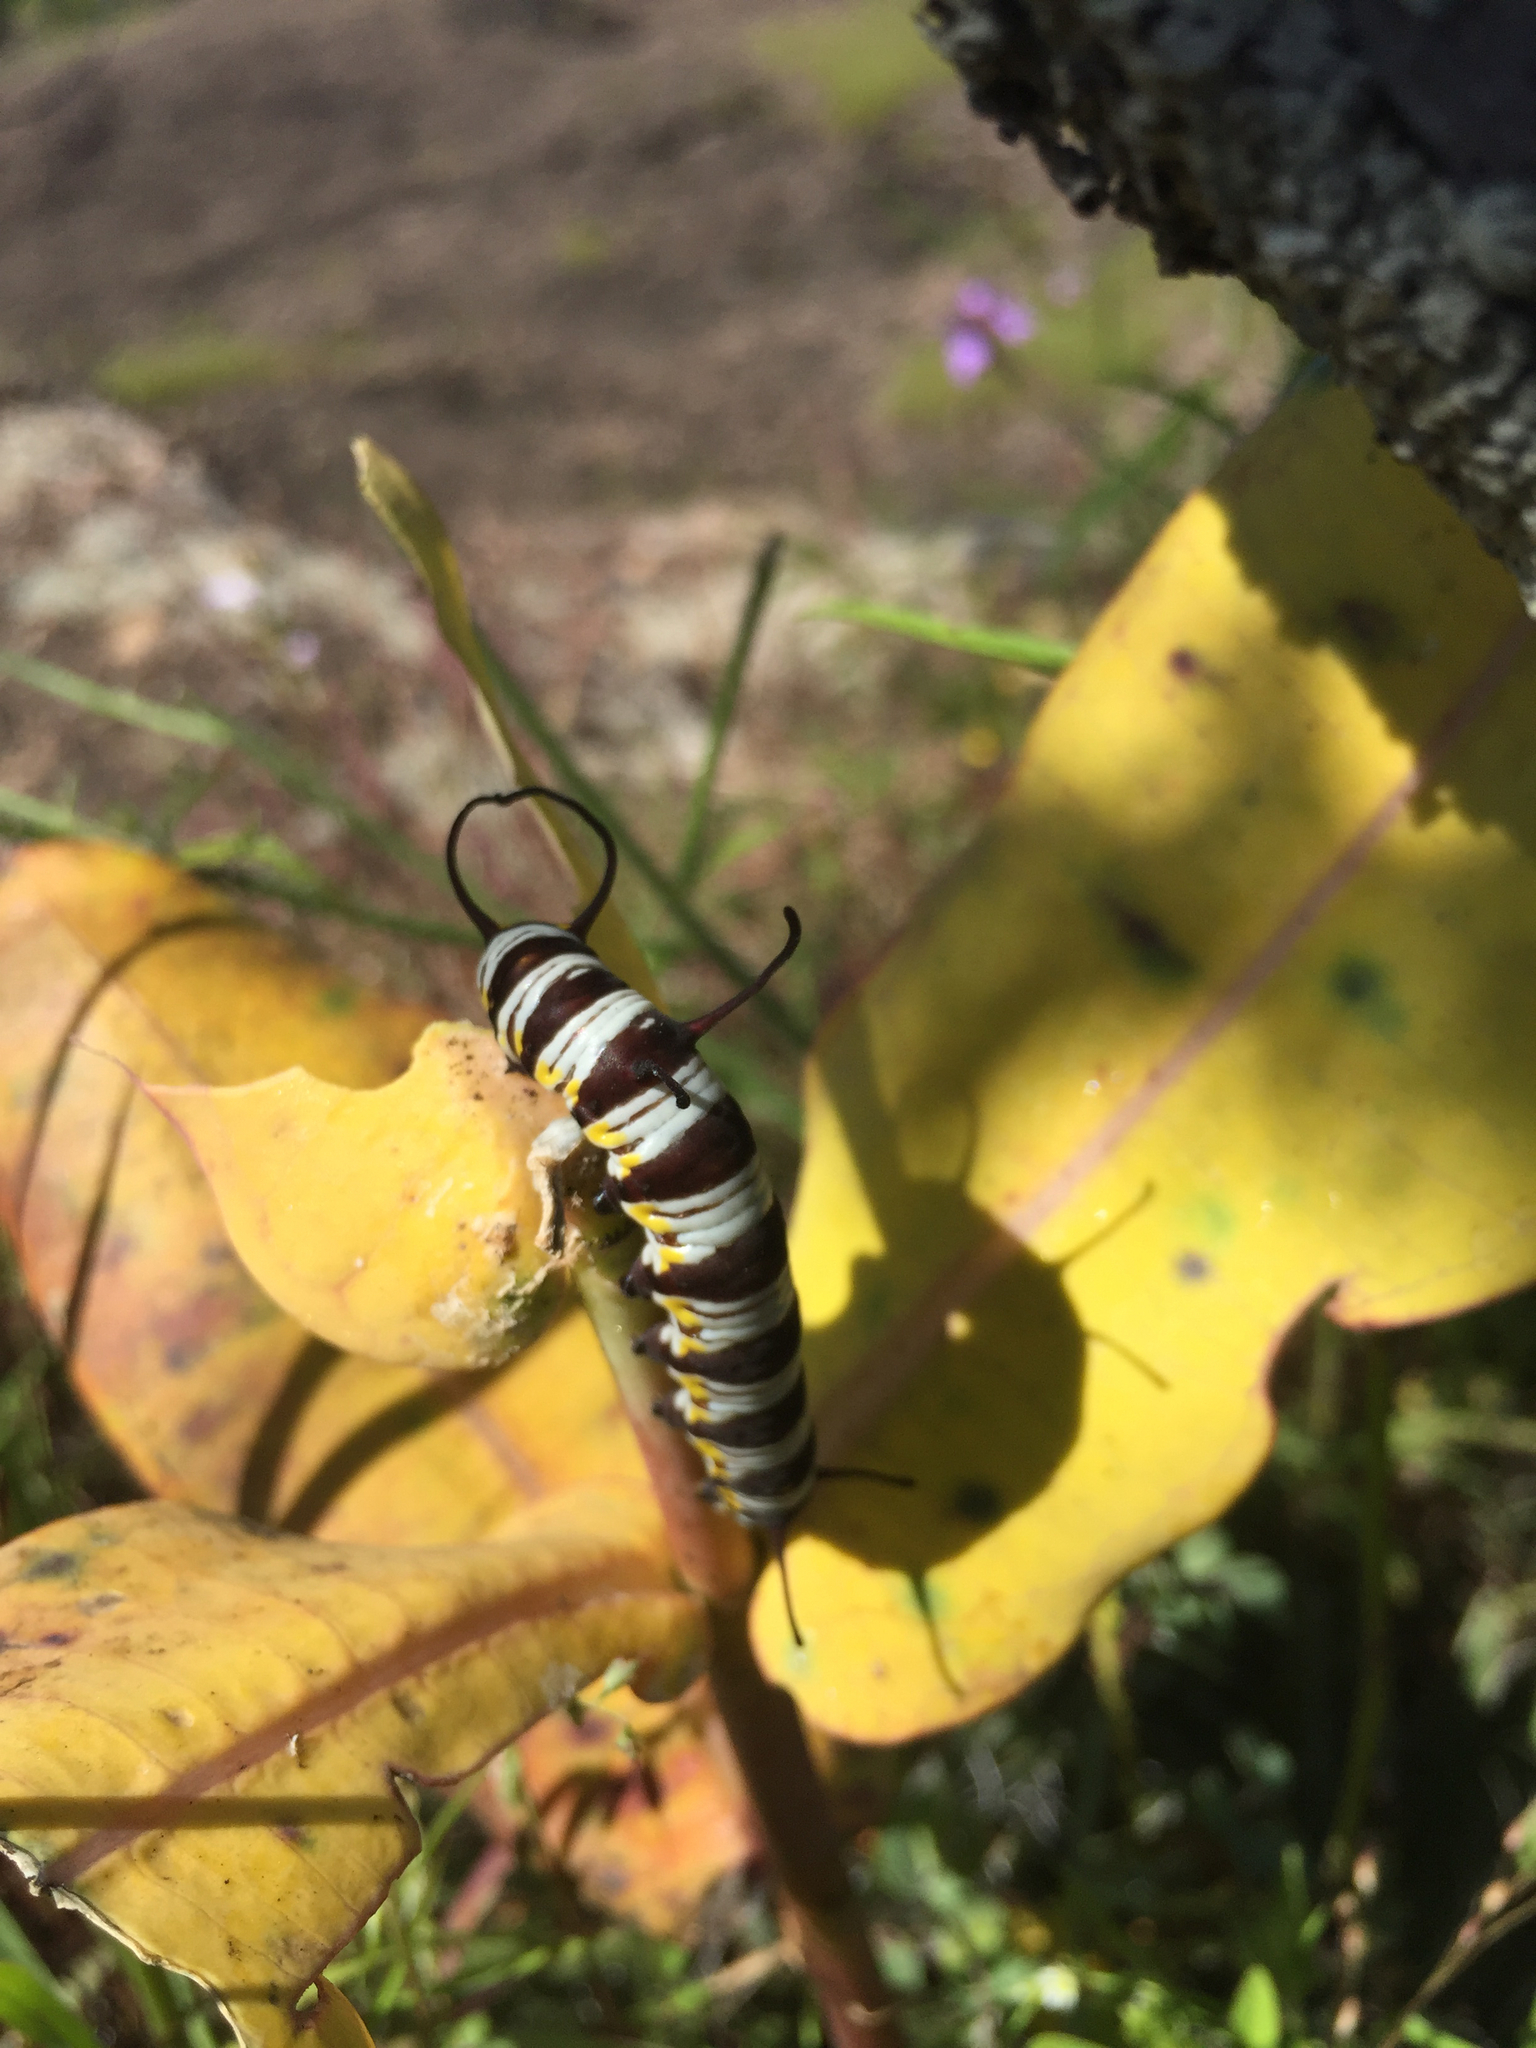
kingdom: Animalia
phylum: Arthropoda
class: Insecta
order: Lepidoptera
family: Nymphalidae
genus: Danaus
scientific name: Danaus gilippus
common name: Queen
